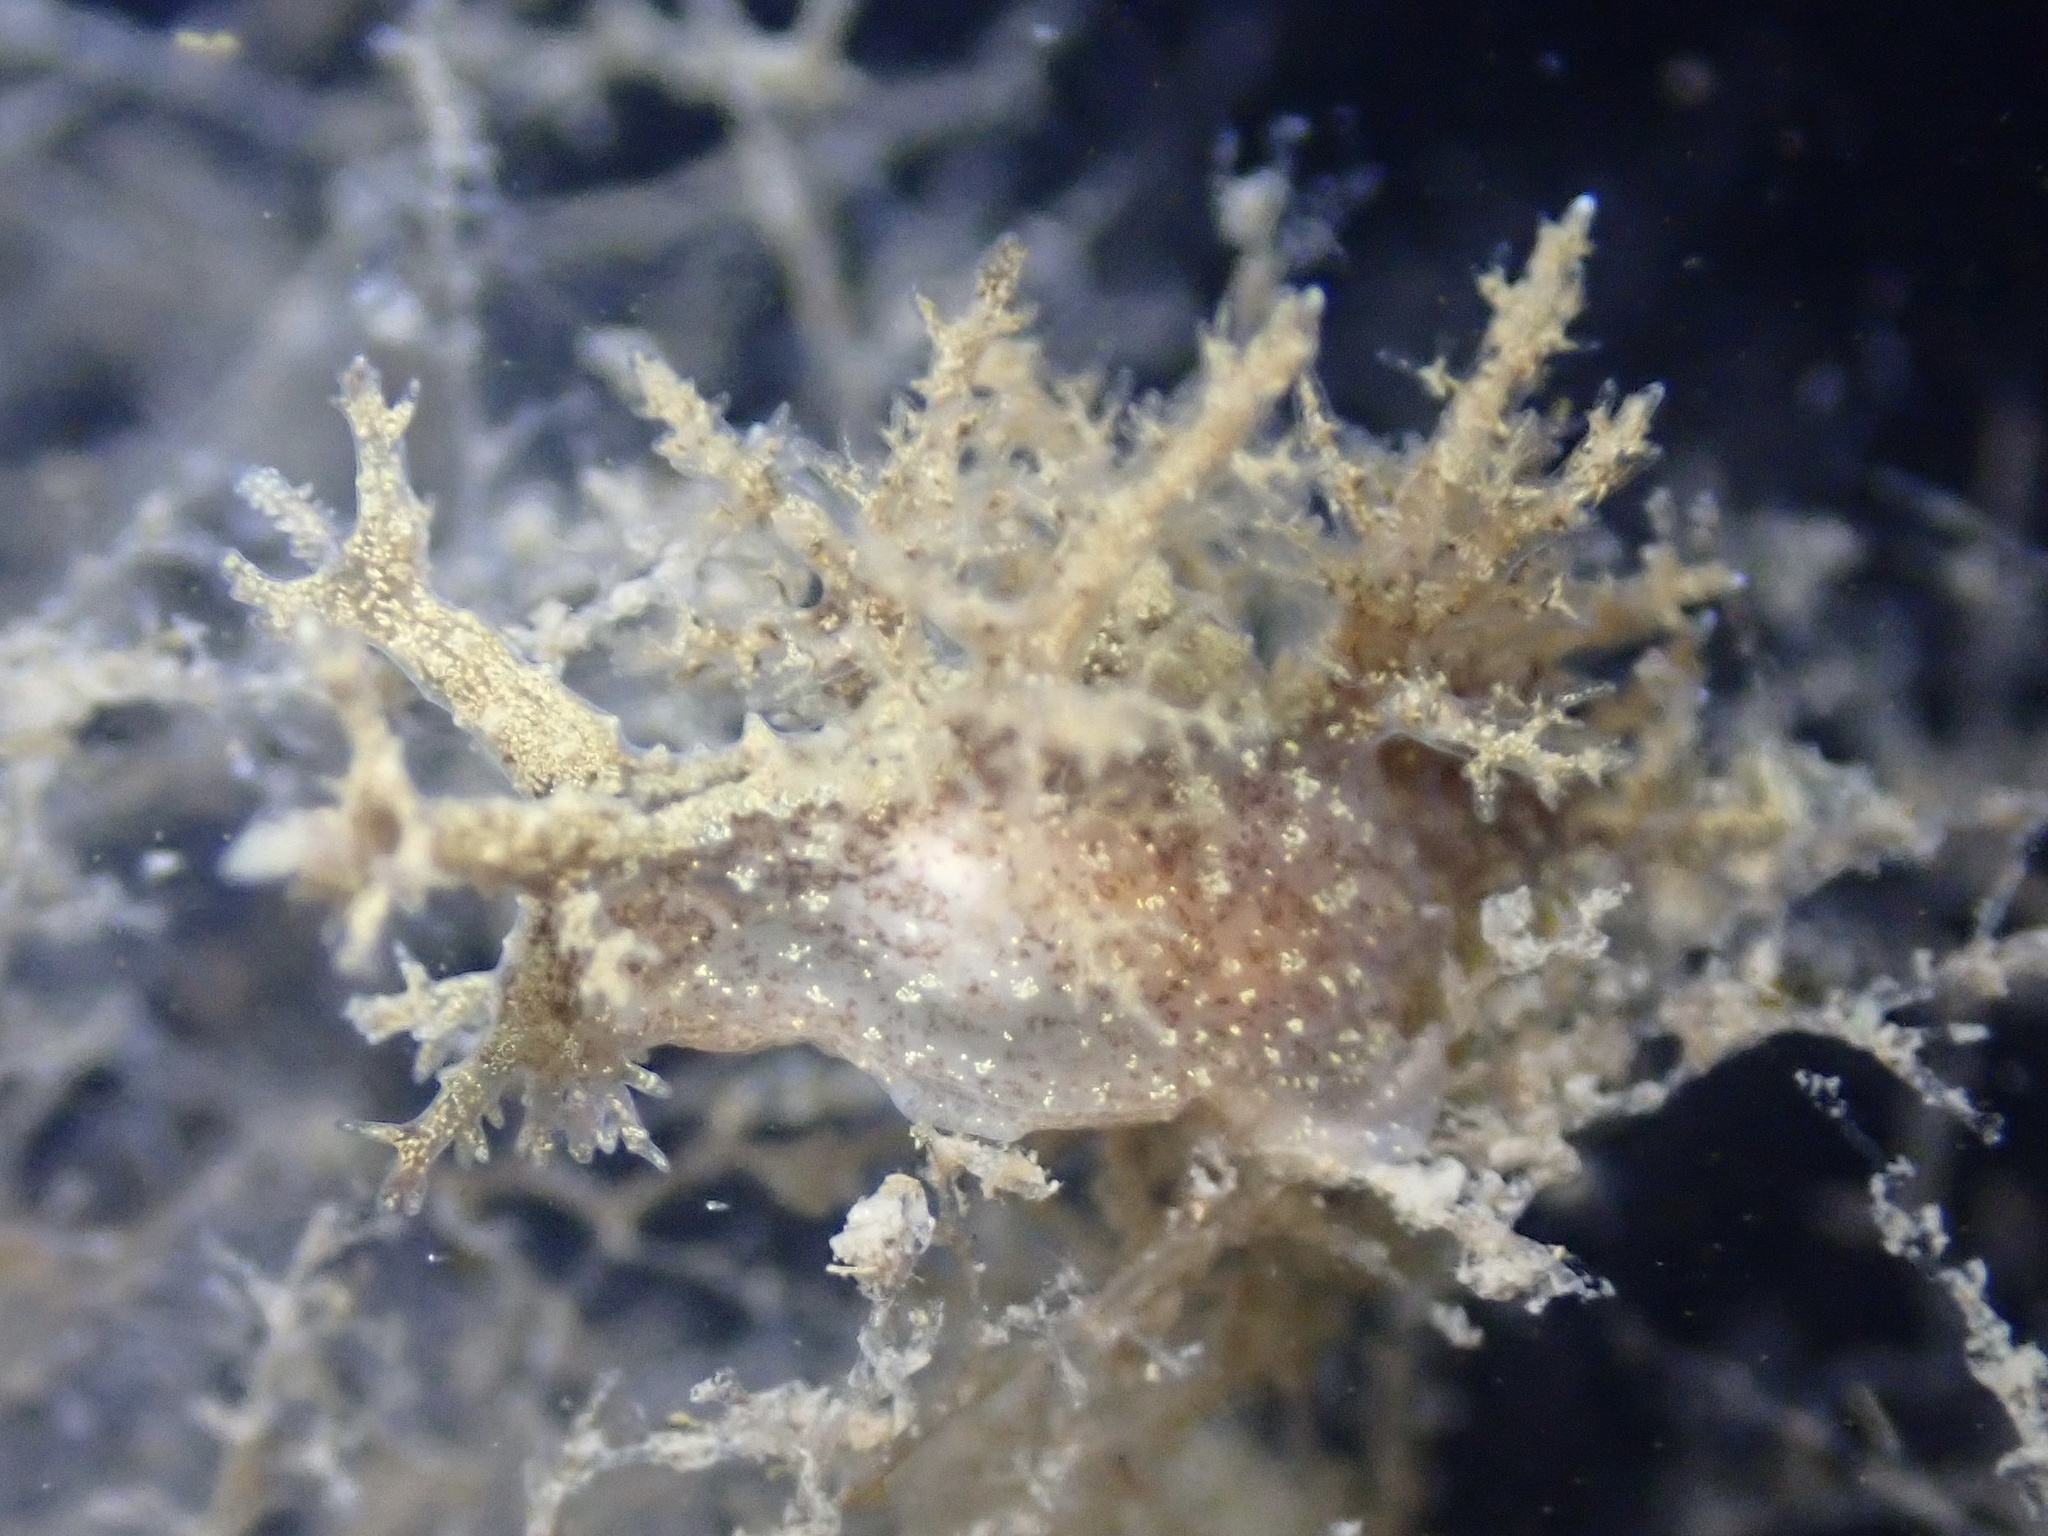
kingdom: Animalia
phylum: Mollusca
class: Gastropoda
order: Nudibranchia
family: Dendronotidae
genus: Dendronotus
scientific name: Dendronotus venustus
